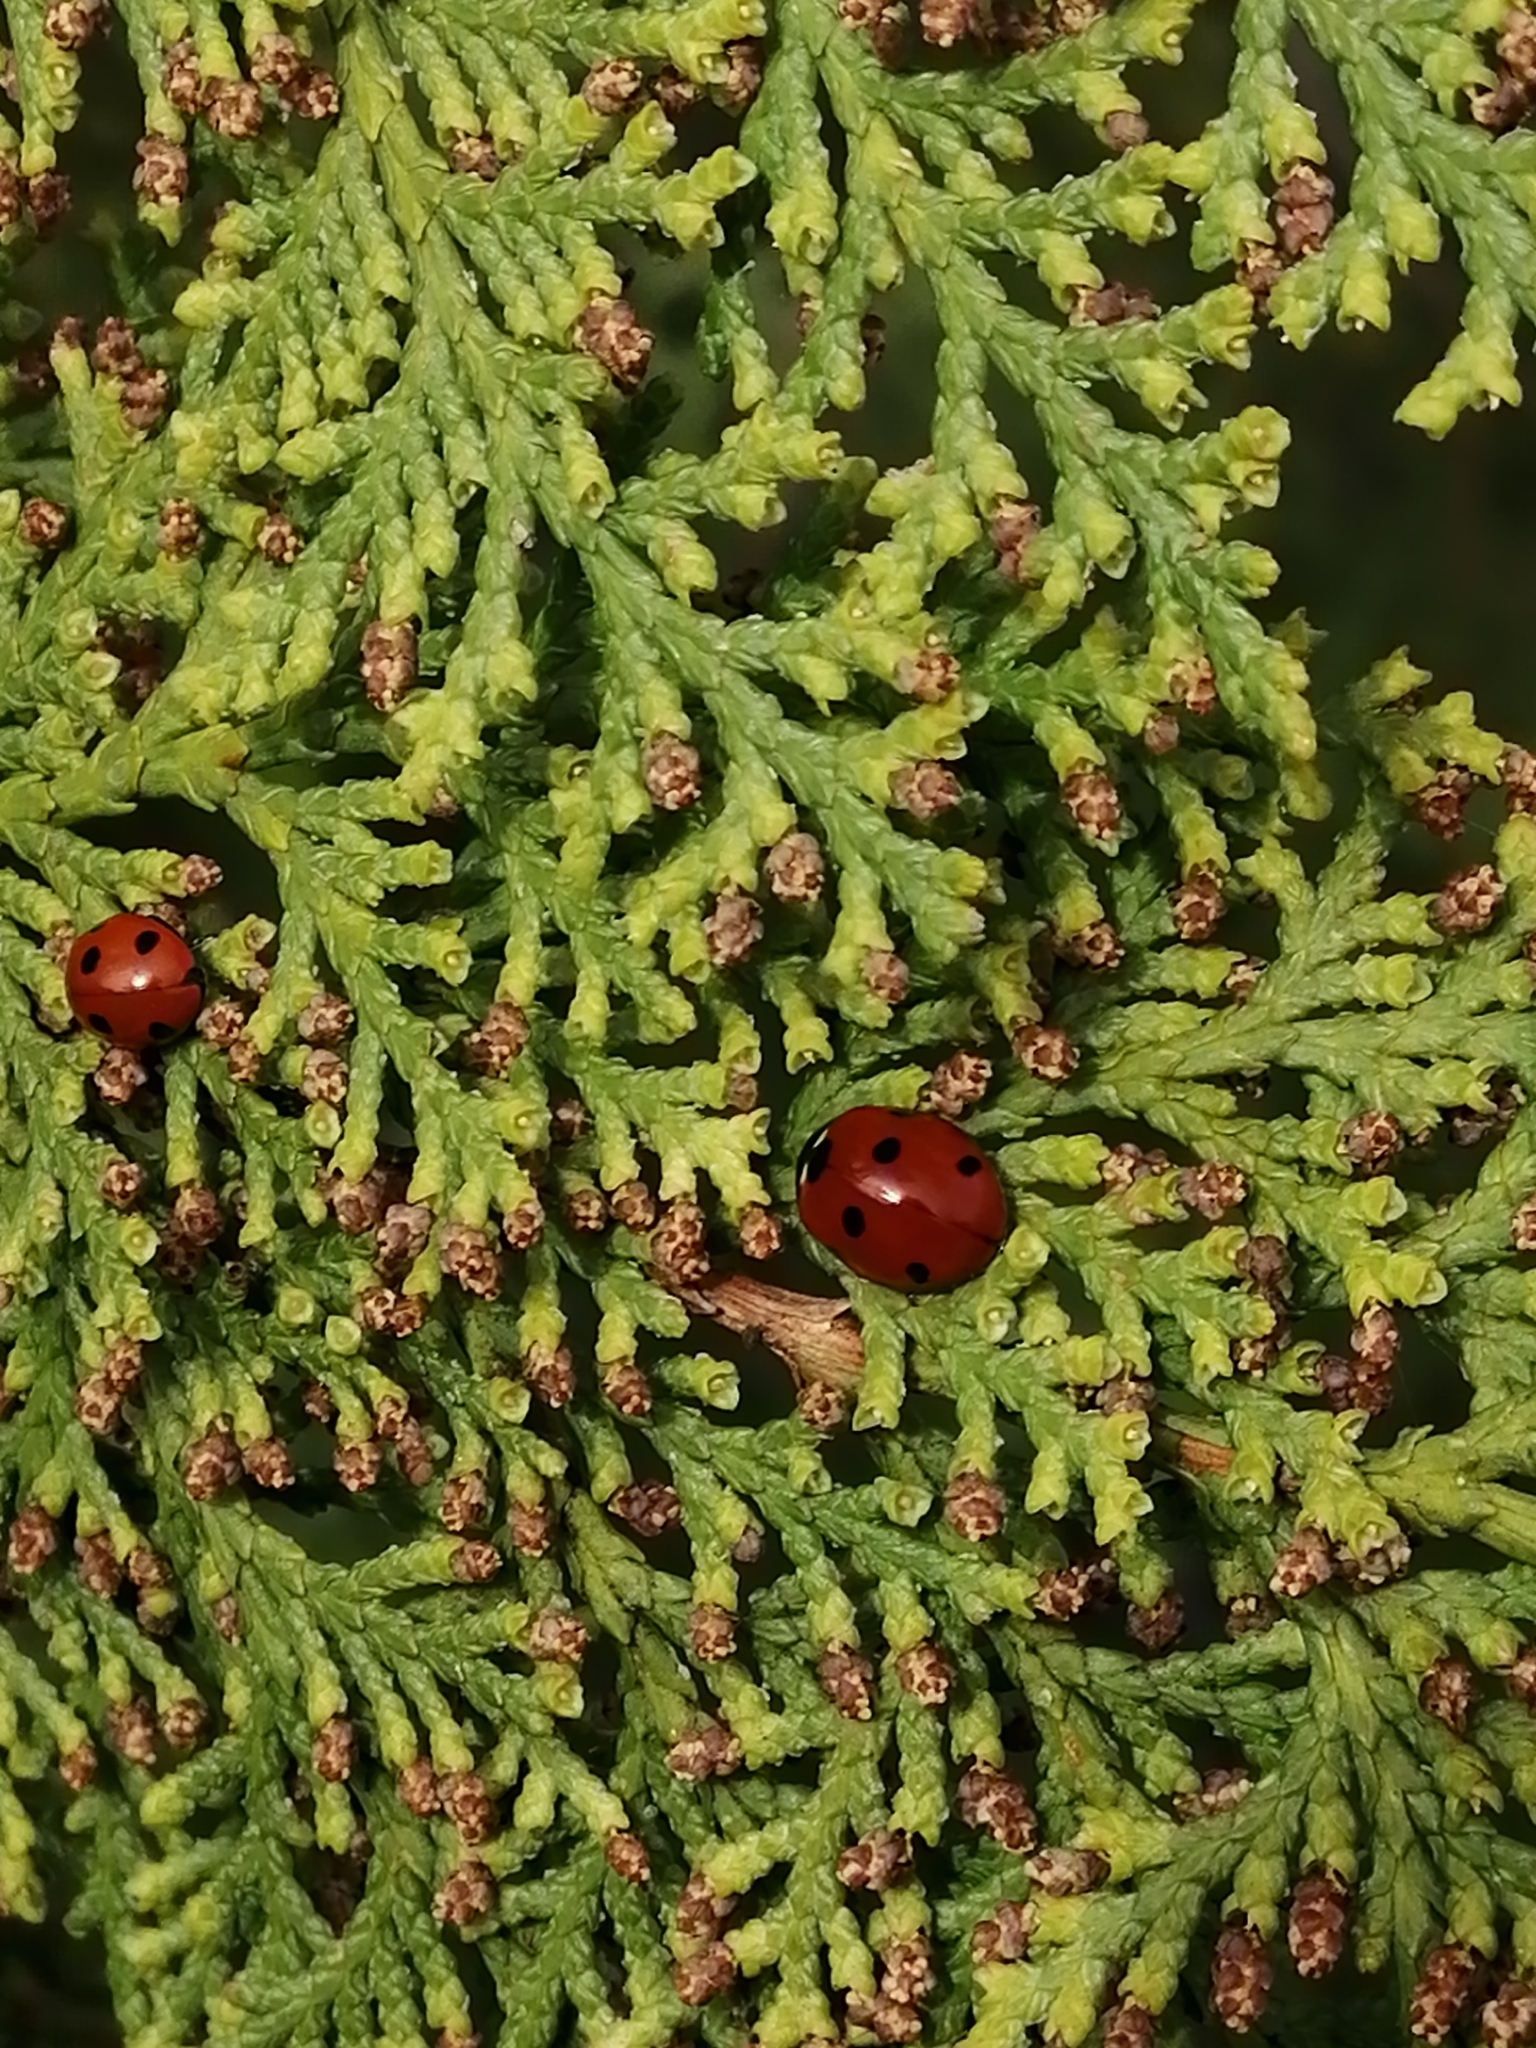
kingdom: Animalia
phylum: Arthropoda
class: Insecta
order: Coleoptera
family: Coccinellidae
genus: Coccinella
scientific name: Coccinella septempunctata
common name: Sevenspotted lady beetle
